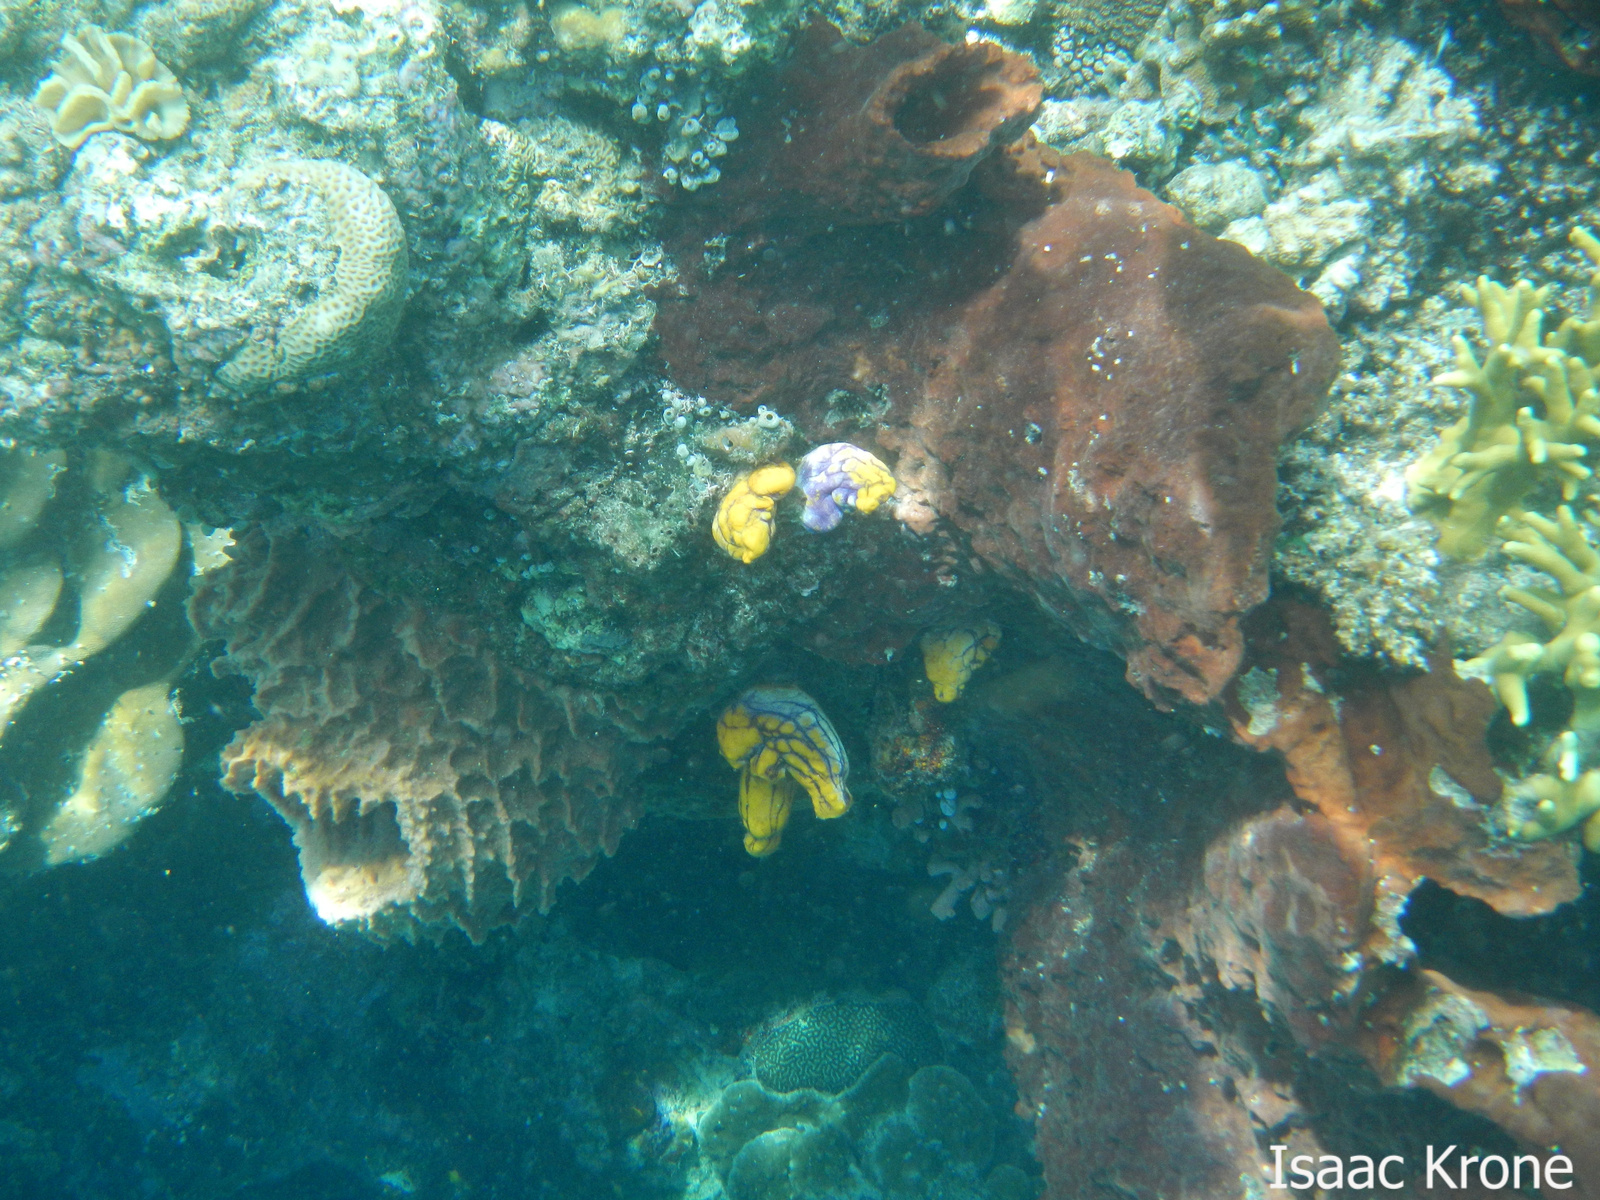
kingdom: Animalia
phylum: Chordata
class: Ascidiacea
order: Stolidobranchia
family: Styelidae
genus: Polycarpa
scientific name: Polycarpa aurata
